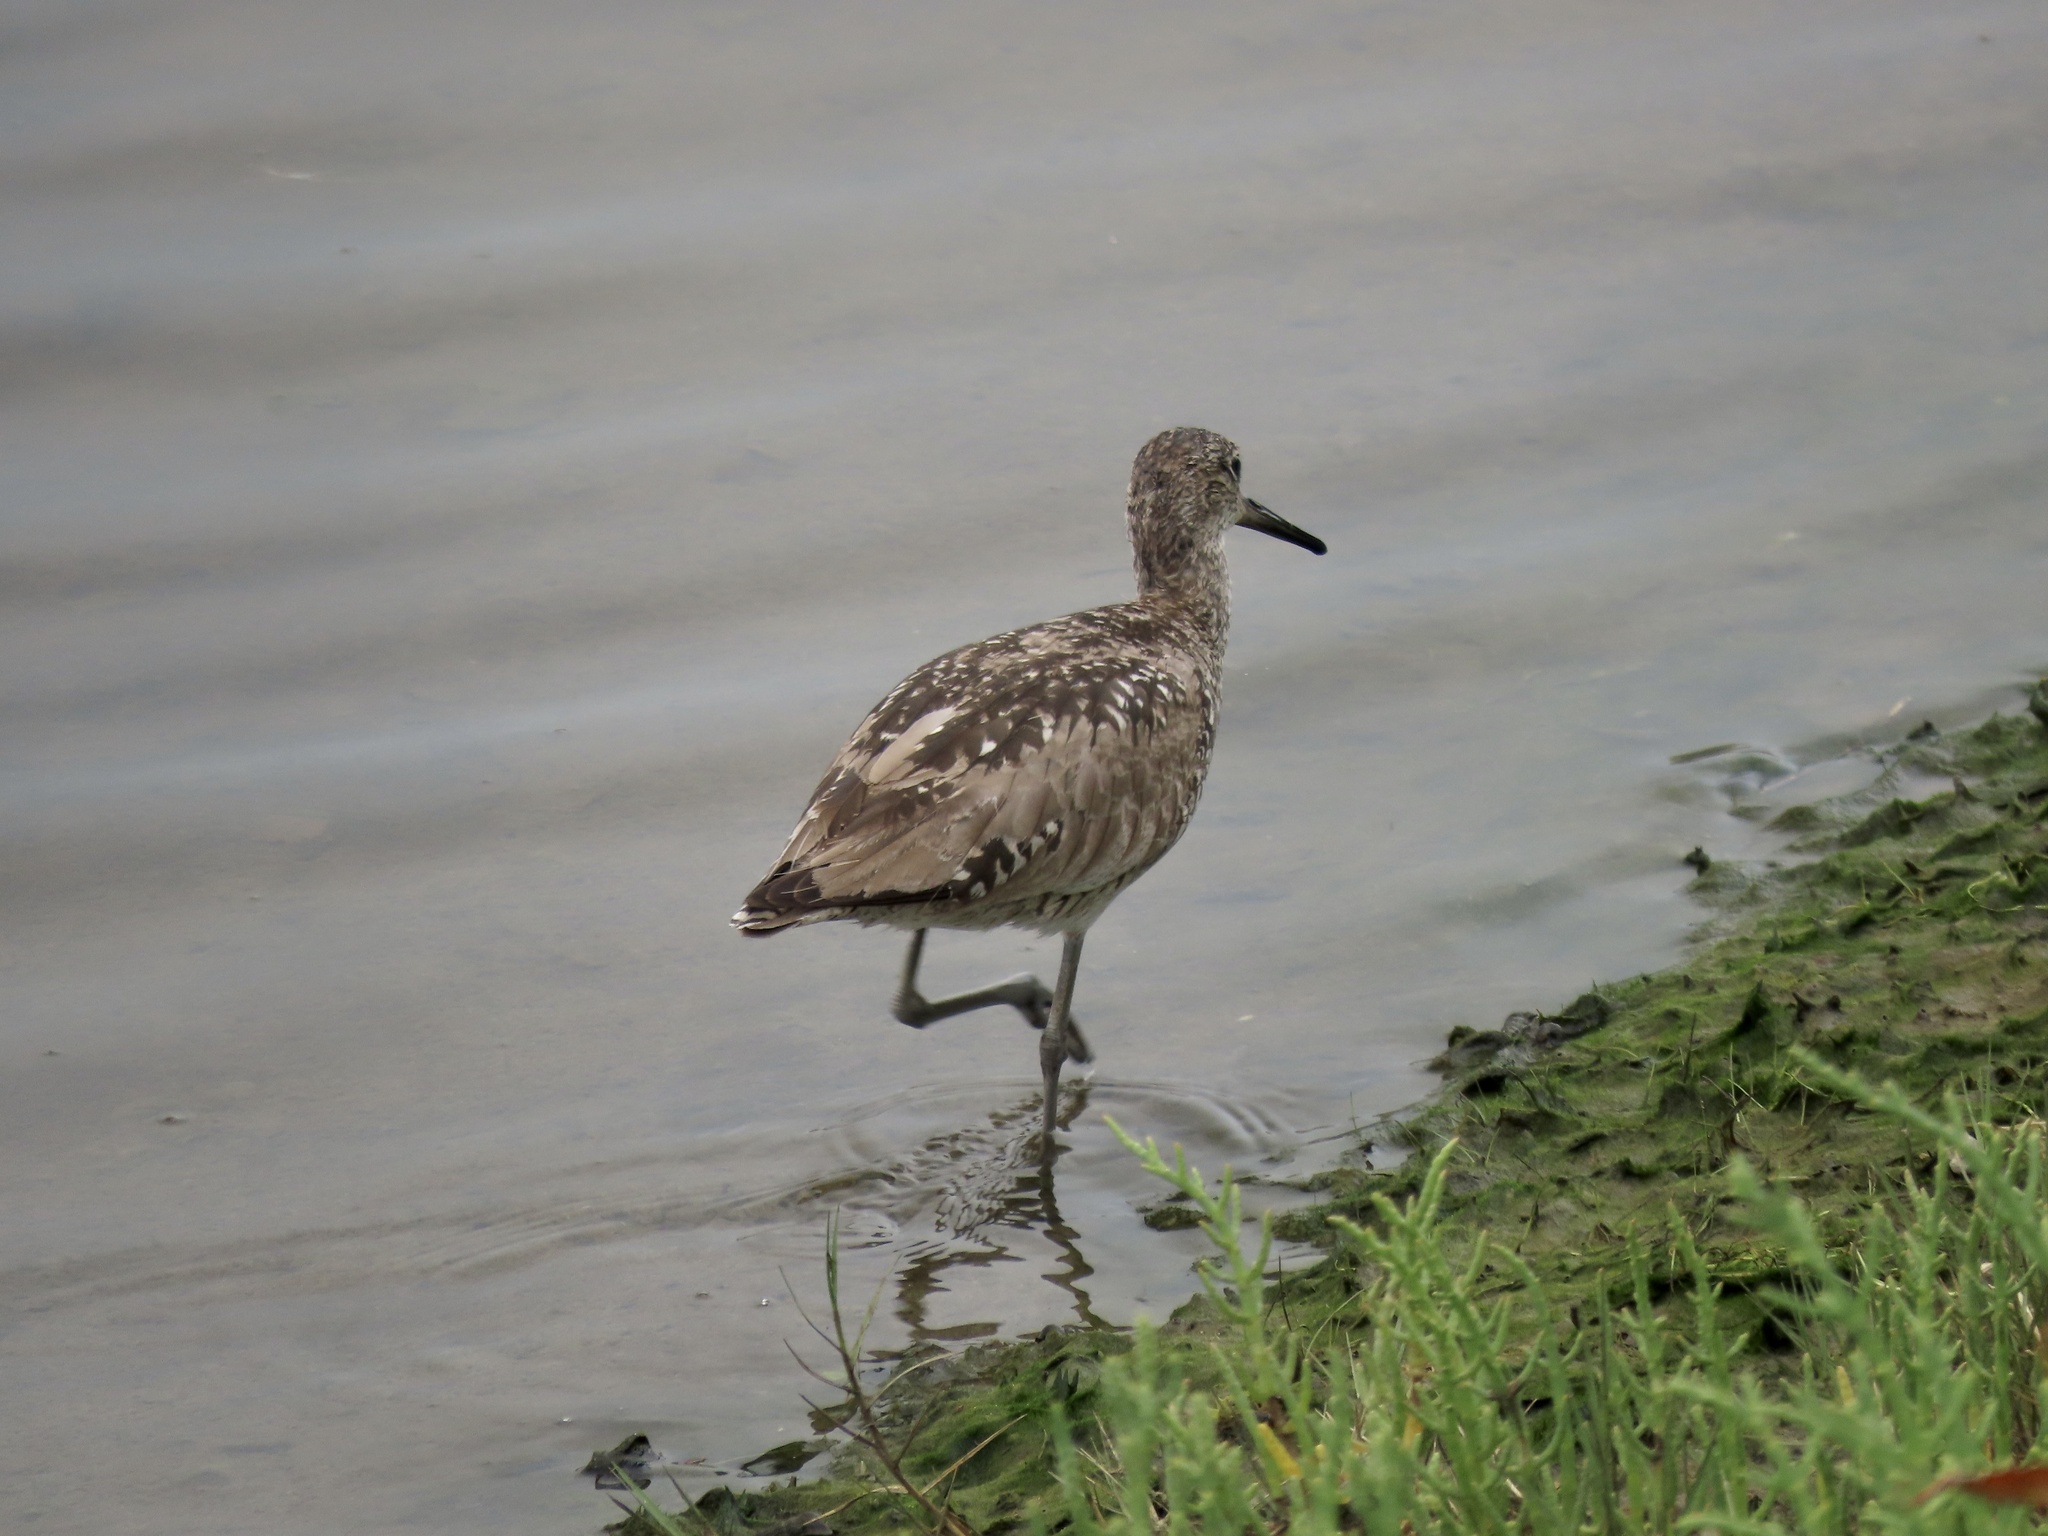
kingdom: Animalia
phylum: Chordata
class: Aves
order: Charadriiformes
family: Scolopacidae
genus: Tringa
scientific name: Tringa semipalmata
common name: Willet
